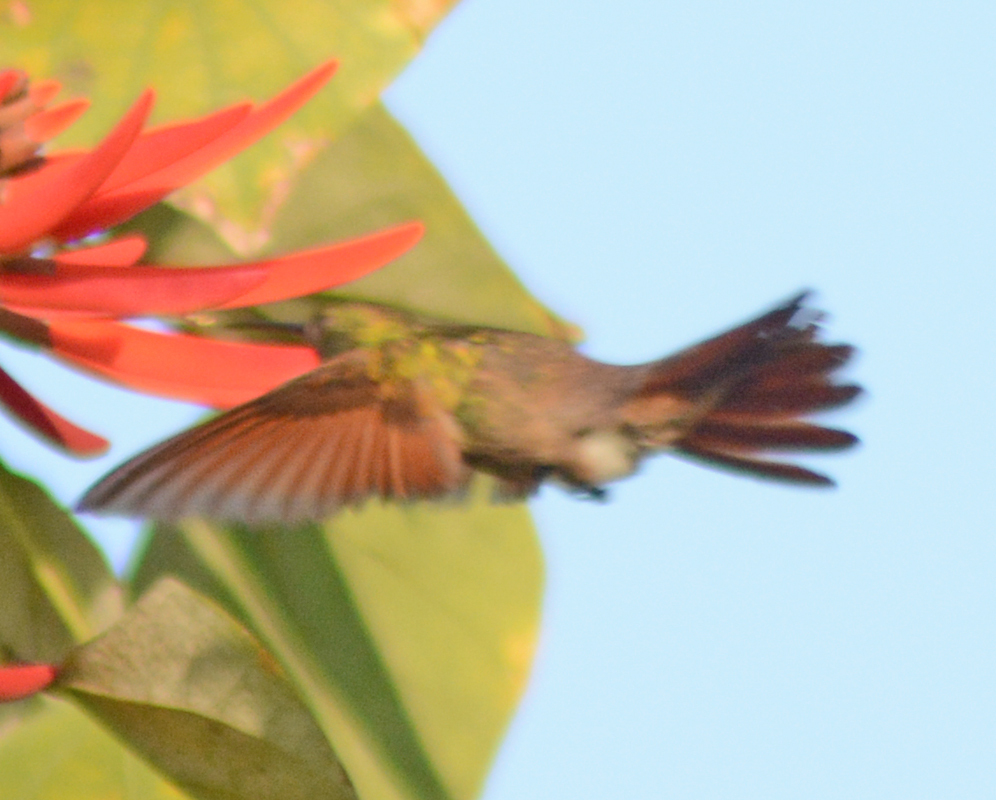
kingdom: Animalia
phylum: Chordata
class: Aves
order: Apodiformes
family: Trochilidae
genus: Saucerottia
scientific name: Saucerottia beryllina
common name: Berylline hummingbird
